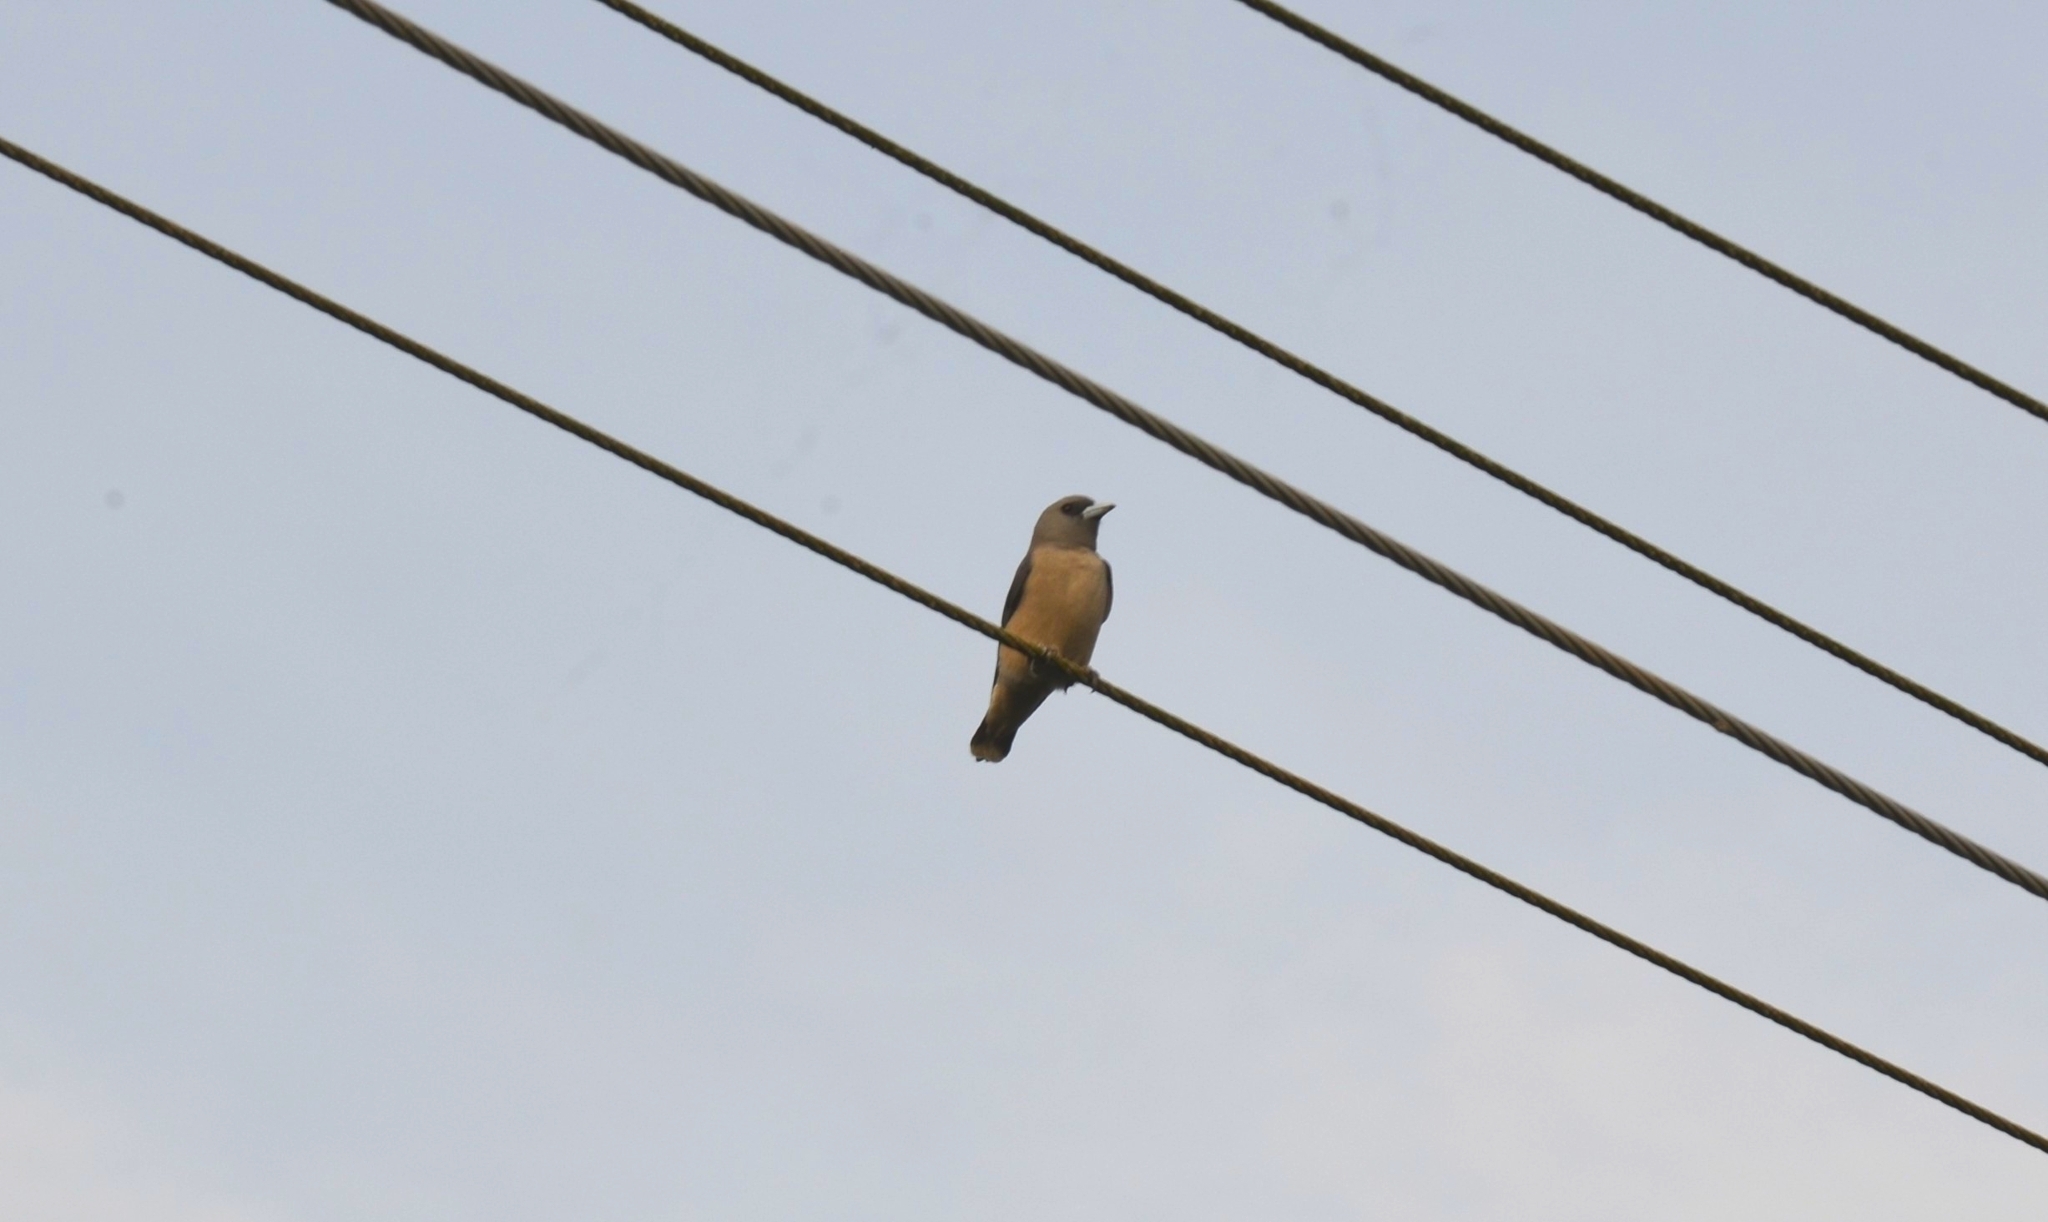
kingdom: Animalia
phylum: Chordata
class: Aves
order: Passeriformes
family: Artamidae
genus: Artamus
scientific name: Artamus fuscus
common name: Ashy woodswallow
